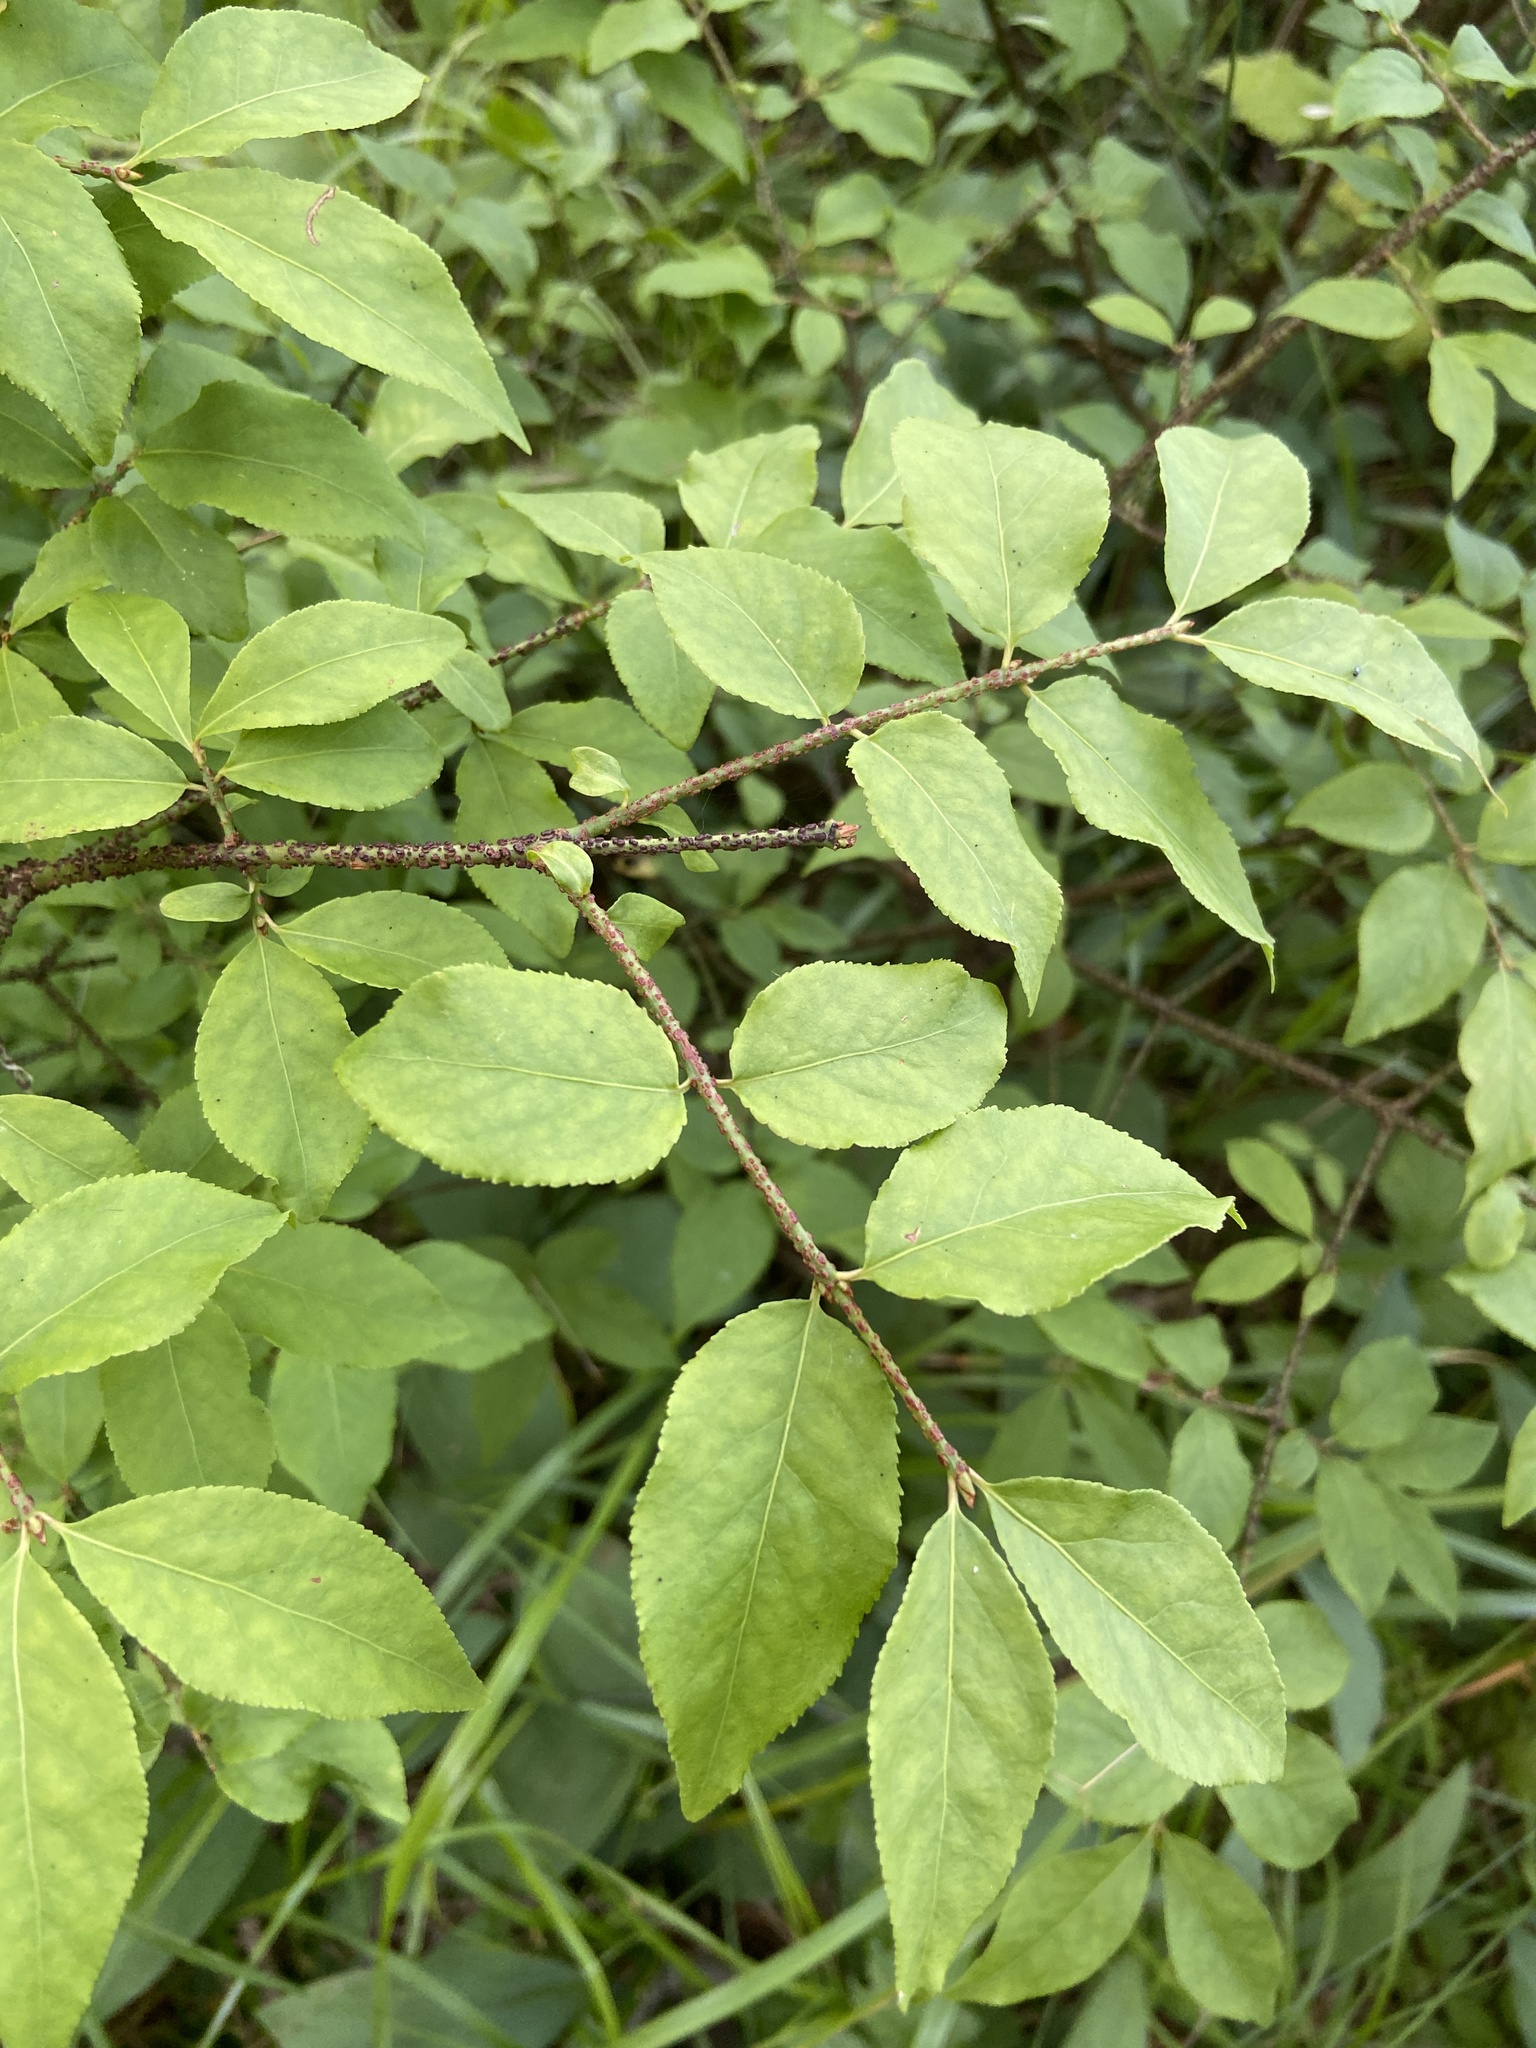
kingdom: Plantae
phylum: Tracheophyta
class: Magnoliopsida
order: Celastrales
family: Celastraceae
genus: Euonymus
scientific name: Euonymus verrucosus
